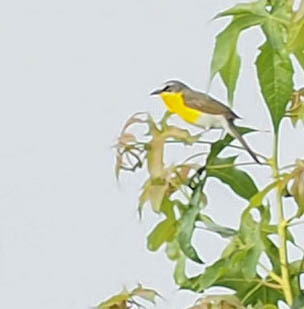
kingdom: Animalia
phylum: Chordata
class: Aves
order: Passeriformes
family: Parulidae
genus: Icteria
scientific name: Icteria virens
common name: Yellow-breasted chat
